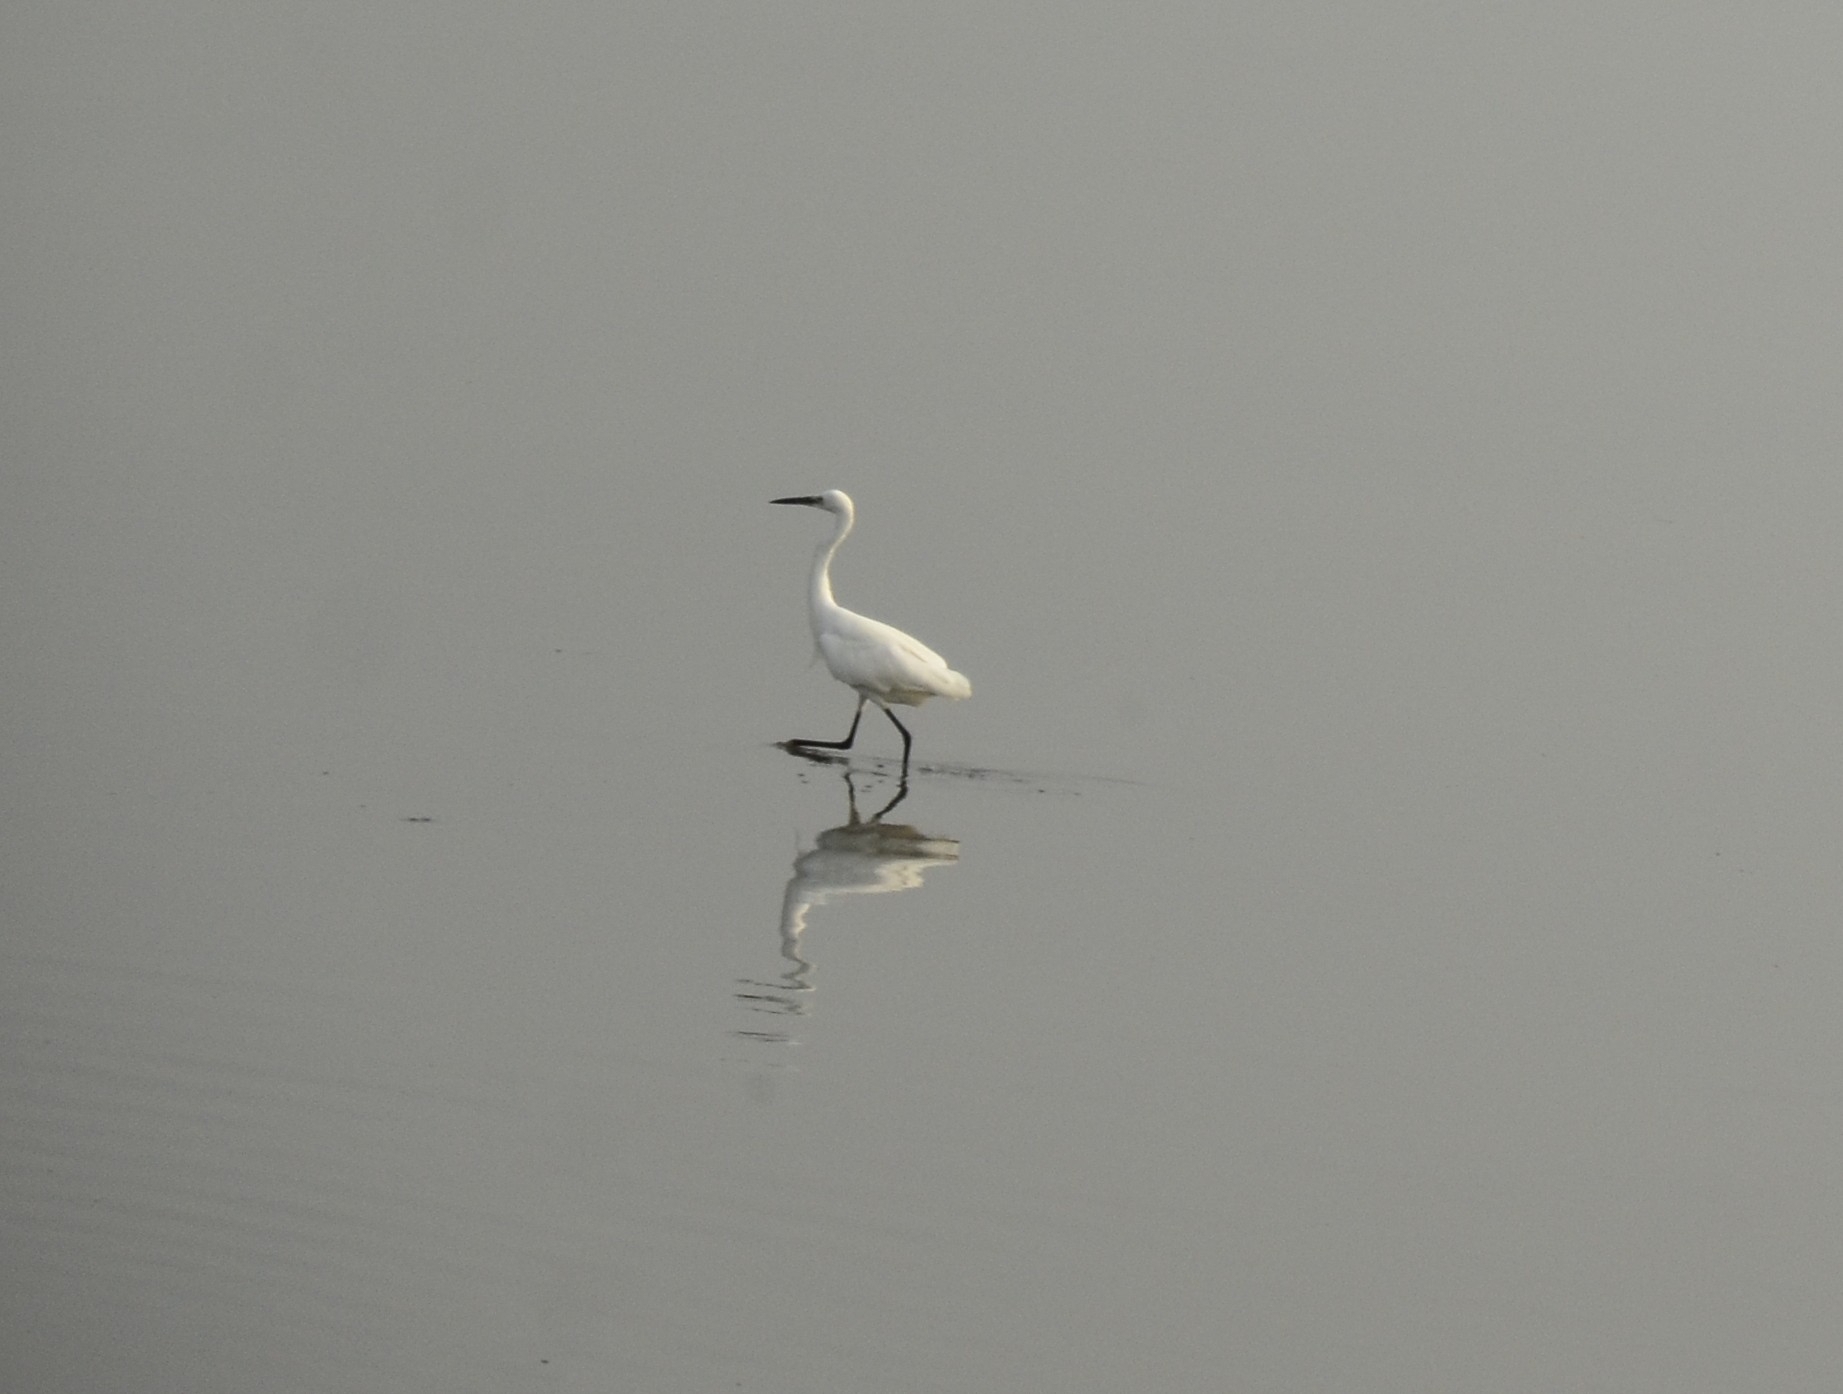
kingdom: Animalia
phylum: Chordata
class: Aves
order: Pelecaniformes
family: Ardeidae
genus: Egretta
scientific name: Egretta garzetta
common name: Little egret
